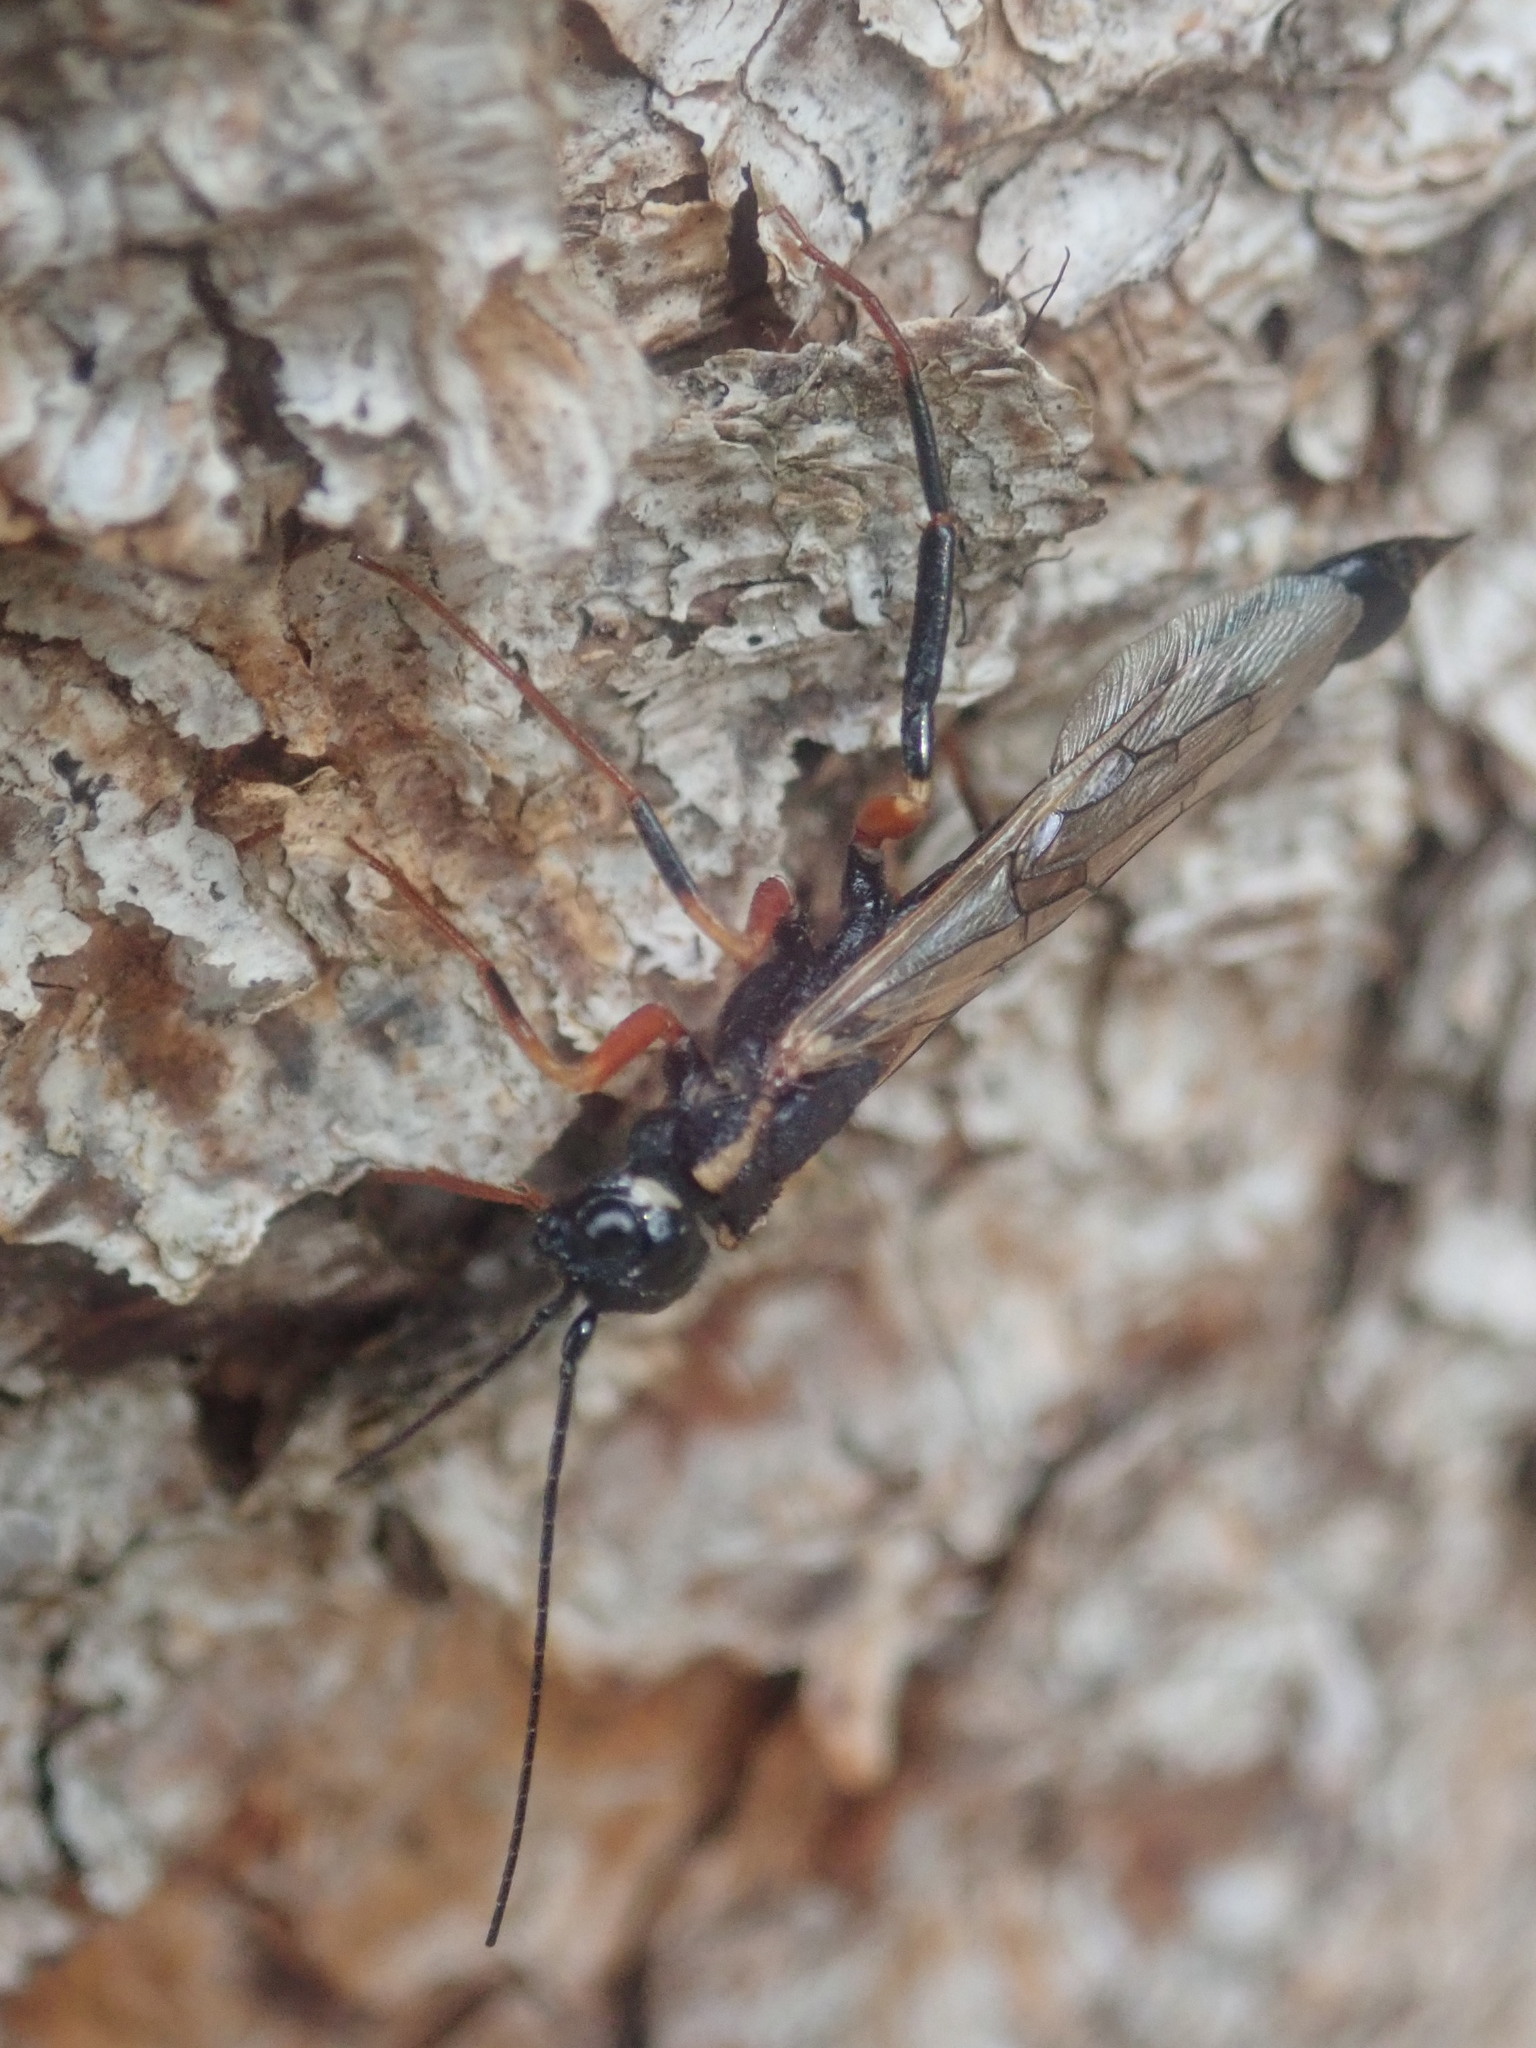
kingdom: Animalia
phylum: Arthropoda
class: Insecta
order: Hymenoptera
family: Siricidae
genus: Xeris
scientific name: Xeris spectrum
